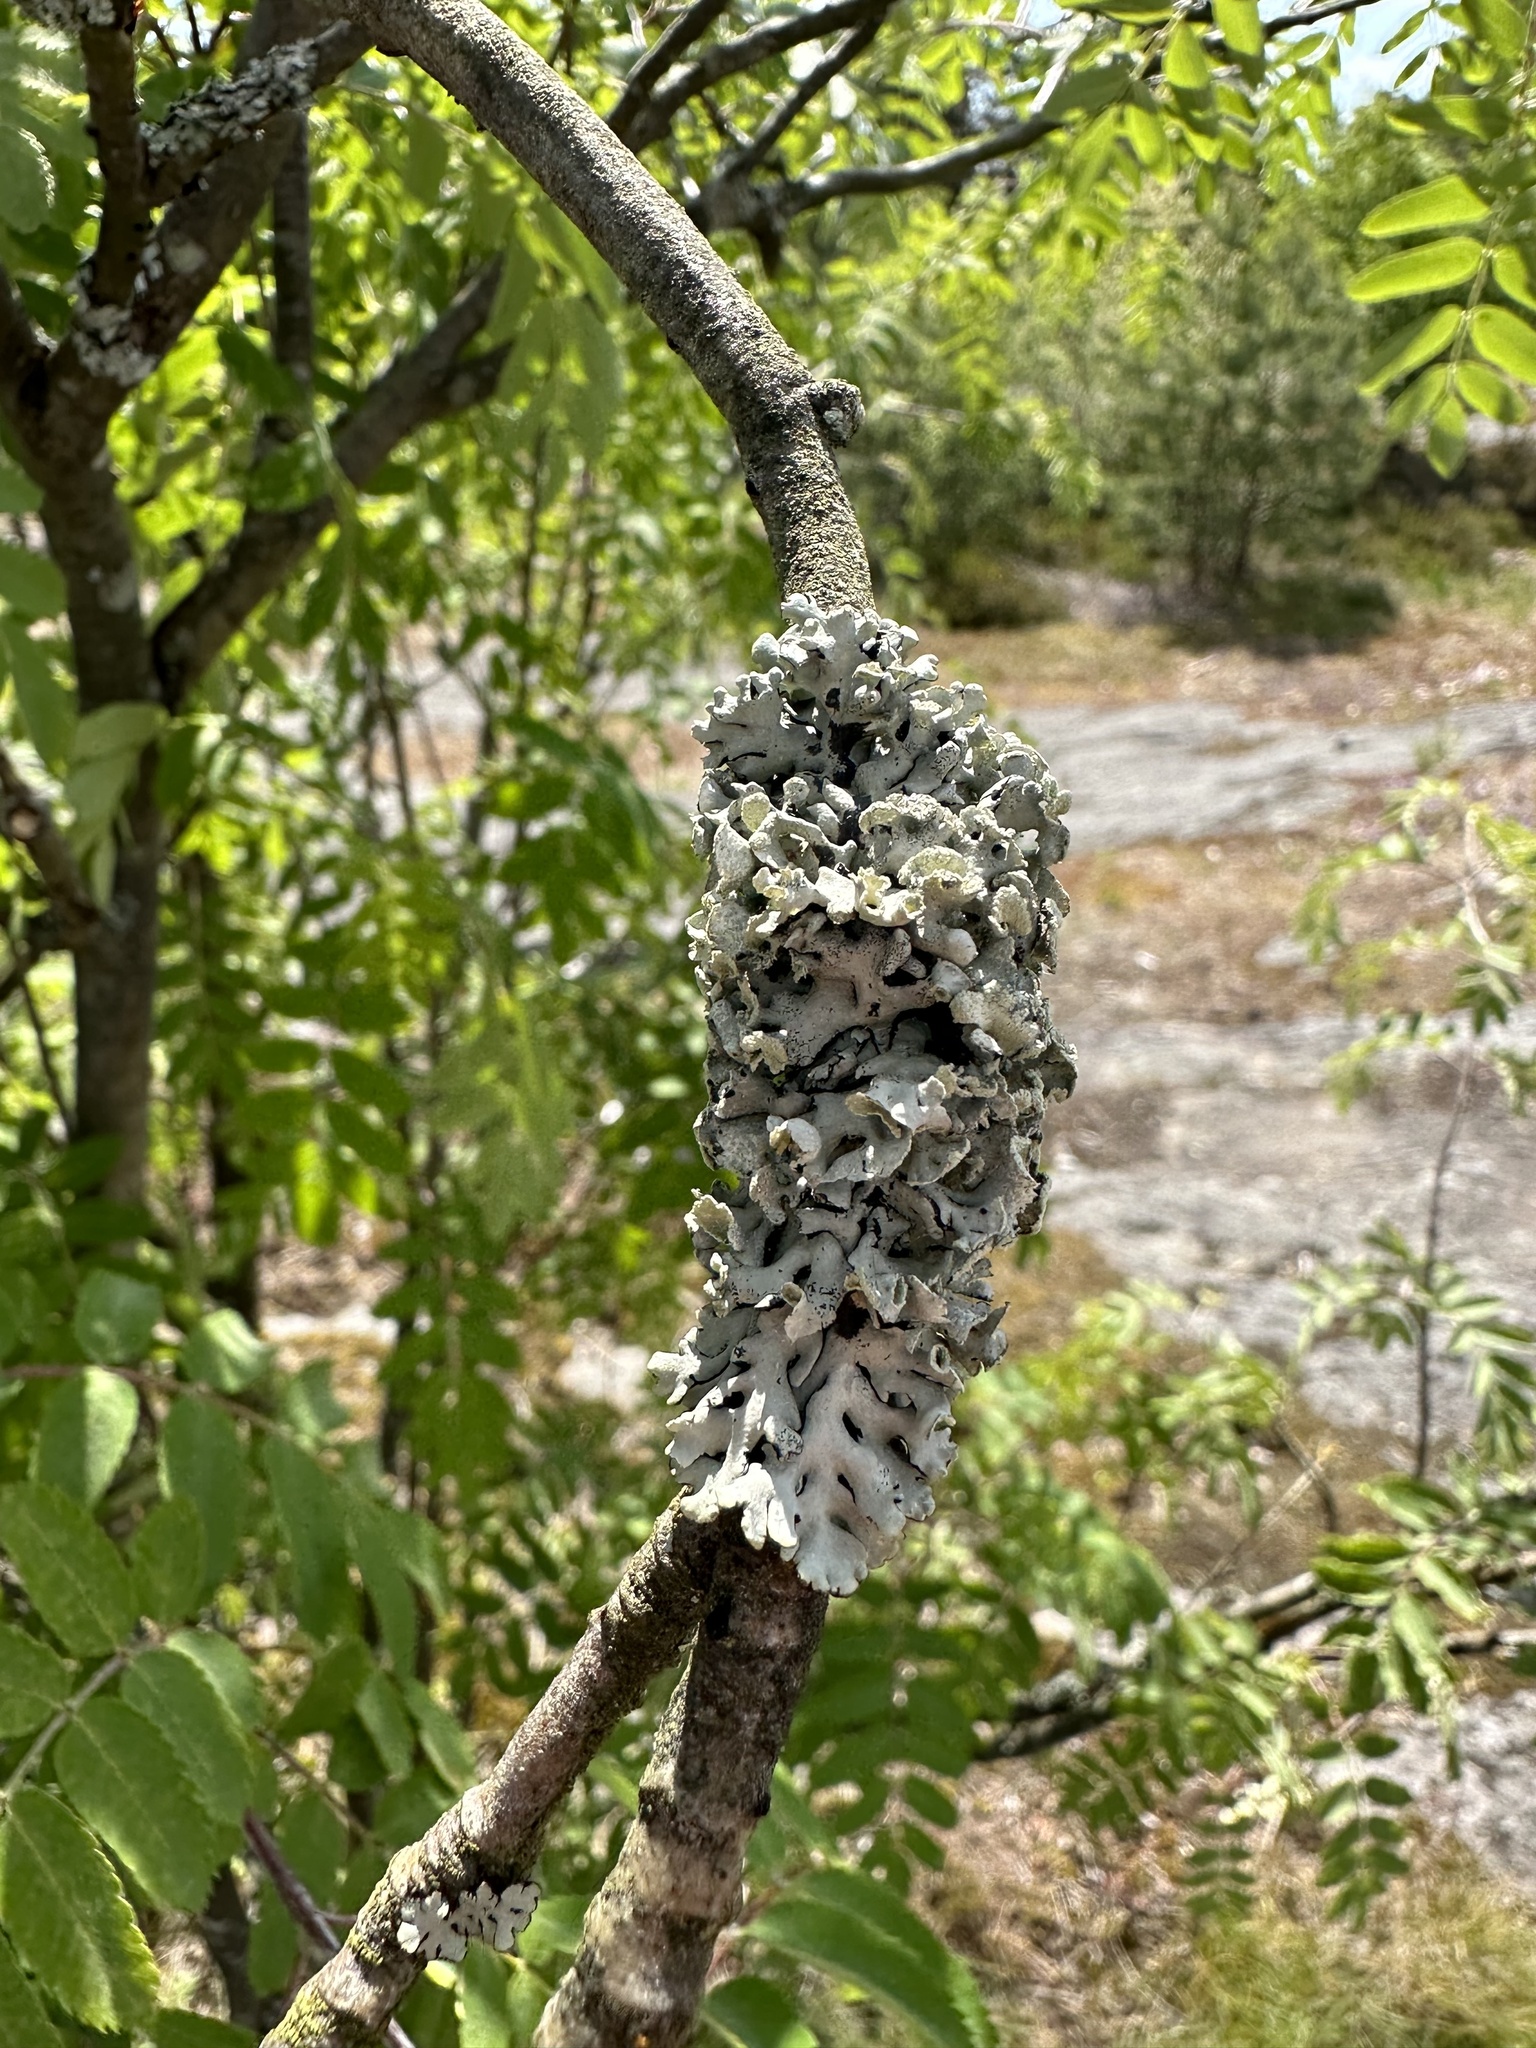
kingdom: Fungi
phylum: Ascomycota
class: Lecanoromycetes
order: Lecanorales
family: Parmeliaceae
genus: Hypogymnia
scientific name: Hypogymnia physodes
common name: Dark crottle
